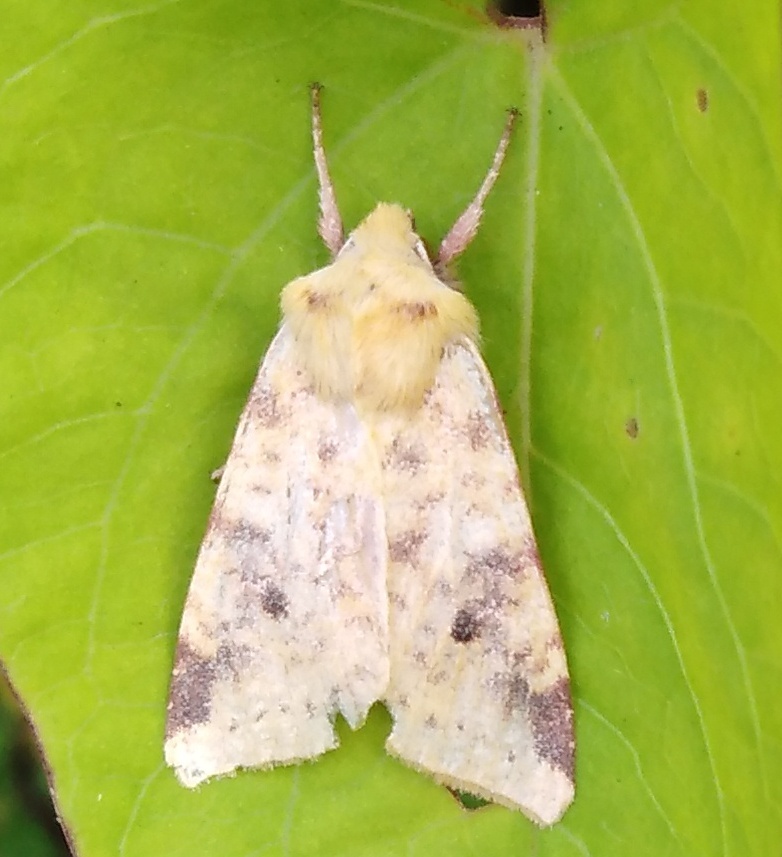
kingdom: Animalia
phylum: Arthropoda
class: Insecta
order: Lepidoptera
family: Noctuidae
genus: Xanthia
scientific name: Xanthia icteritia
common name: The sallow
